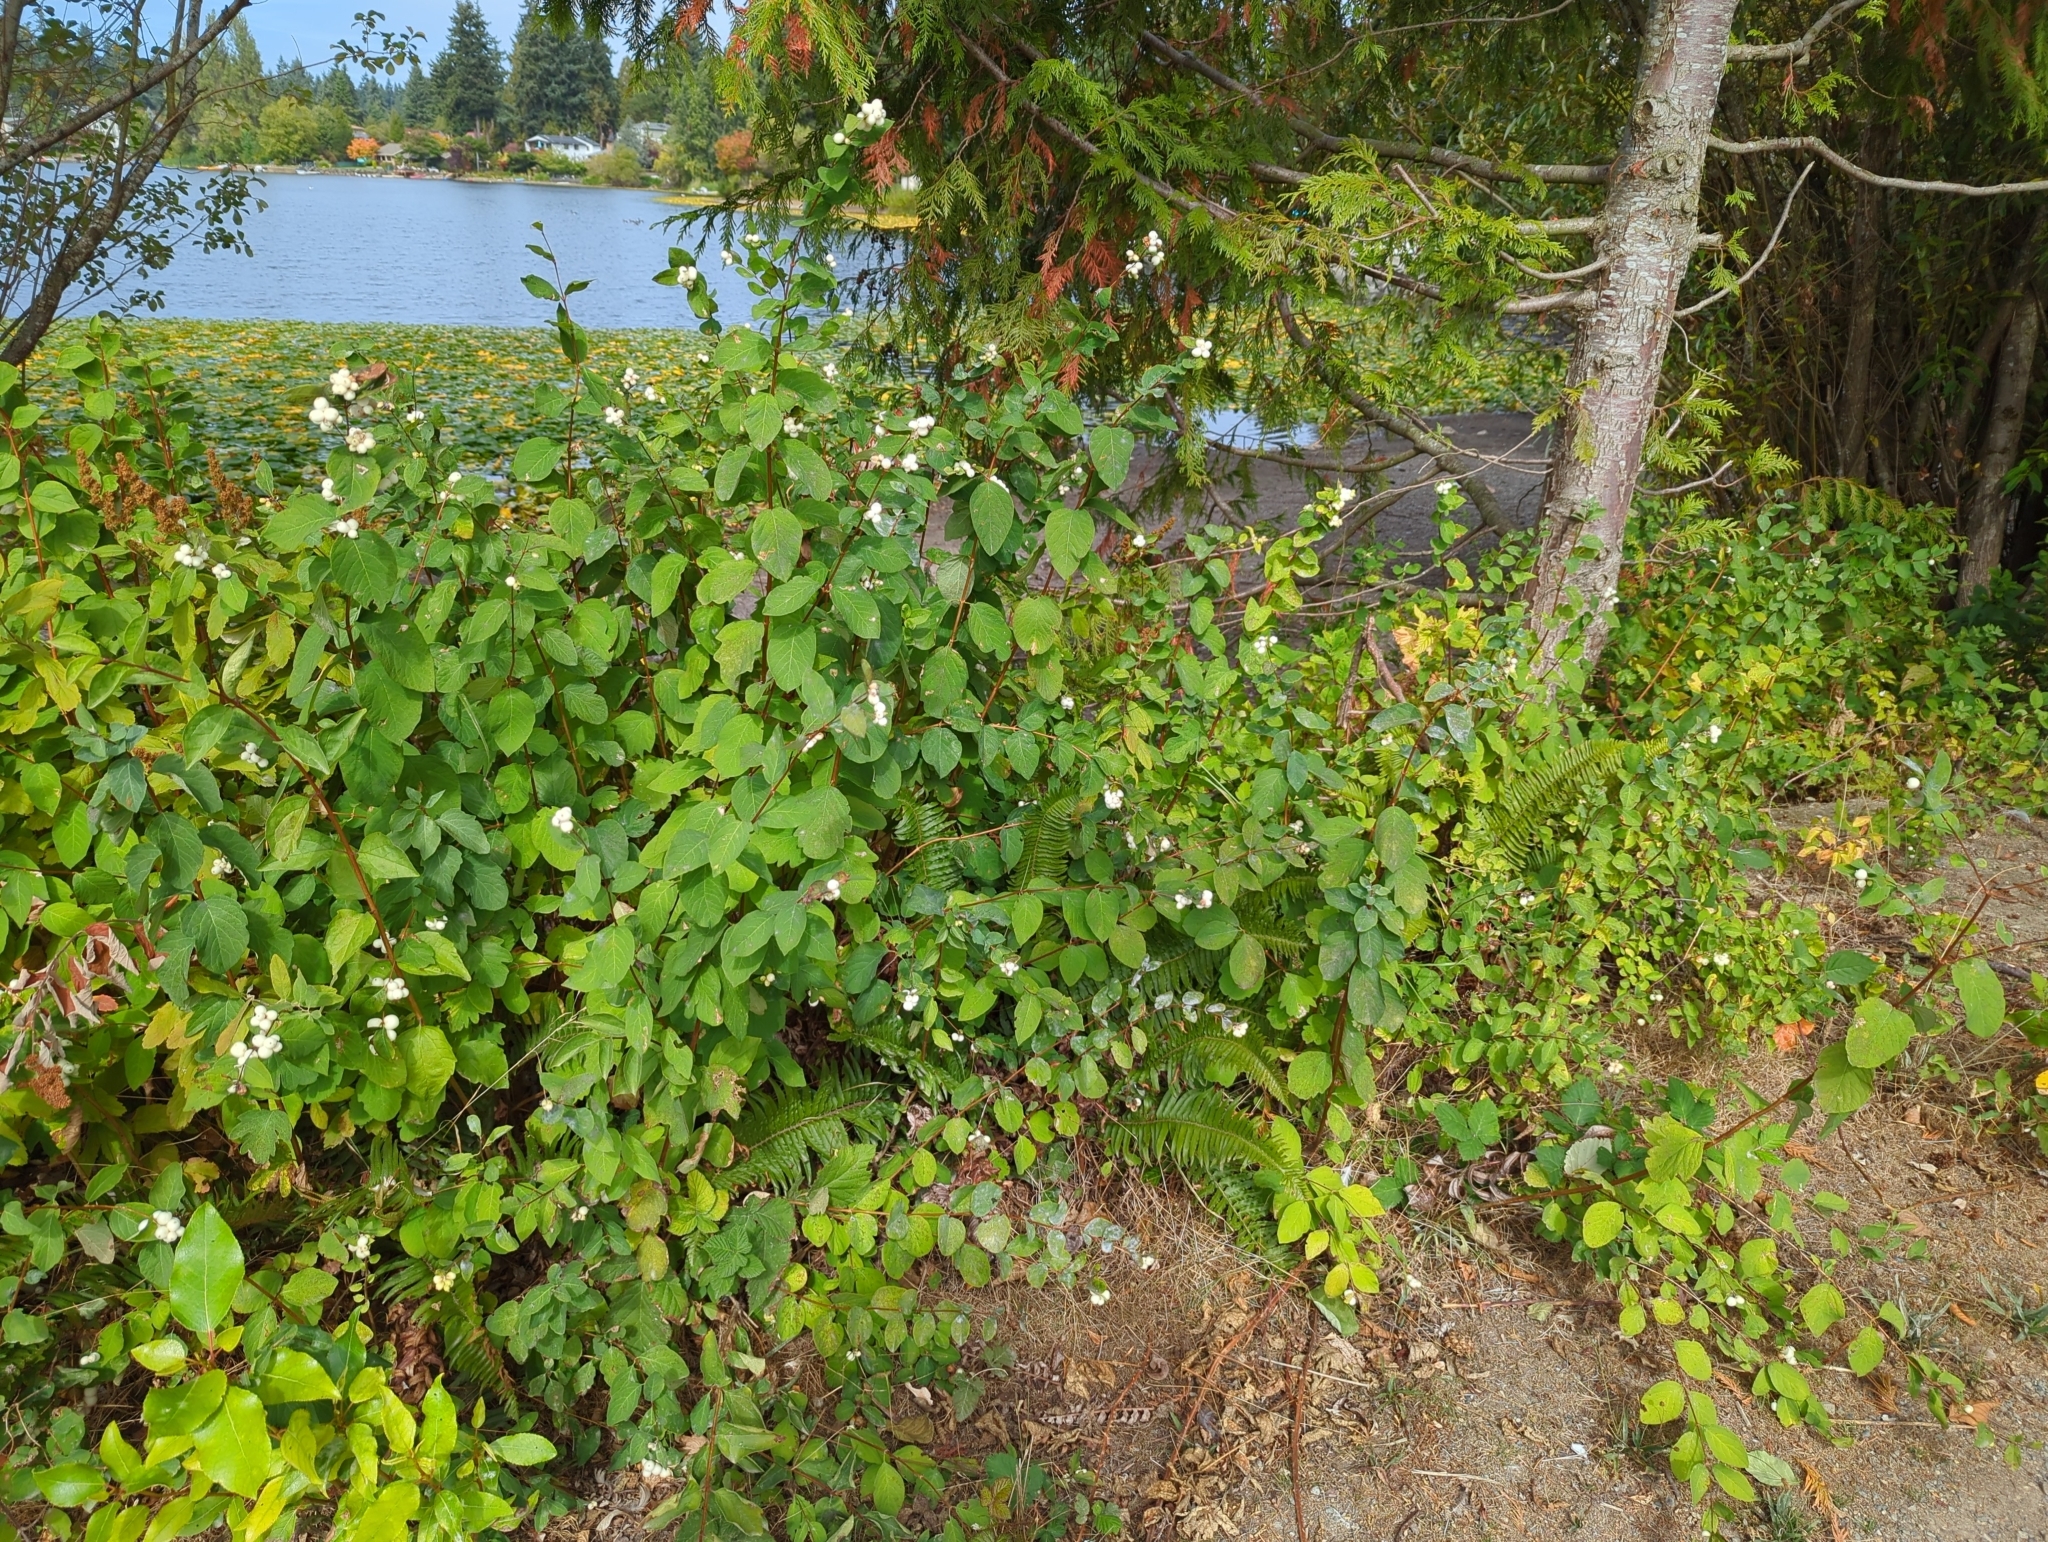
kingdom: Plantae
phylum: Tracheophyta
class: Magnoliopsida
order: Dipsacales
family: Caprifoliaceae
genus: Symphoricarpos
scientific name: Symphoricarpos albus
